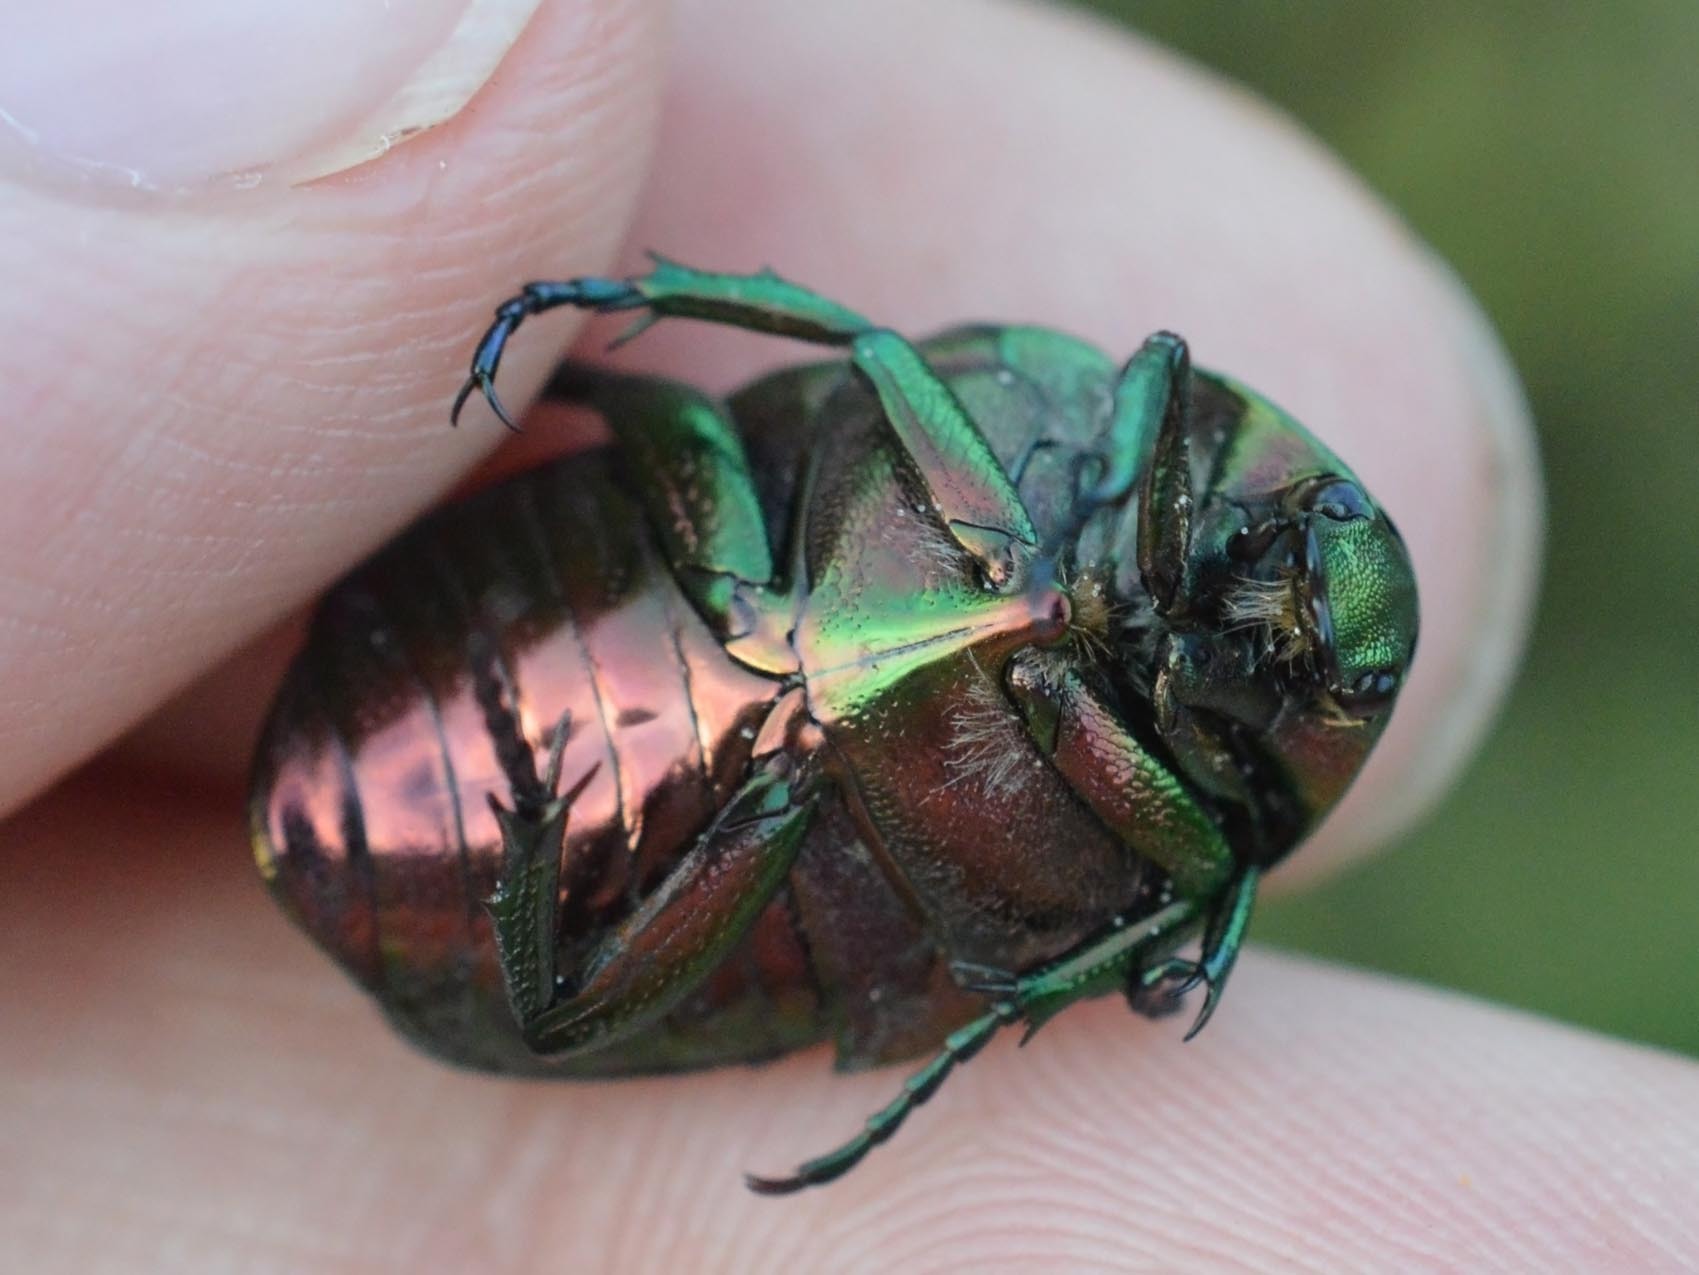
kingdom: Animalia
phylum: Arthropoda
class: Insecta
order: Coleoptera
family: Scarabaeidae
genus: Cetonia
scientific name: Cetonia aurata
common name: Rose chafer
